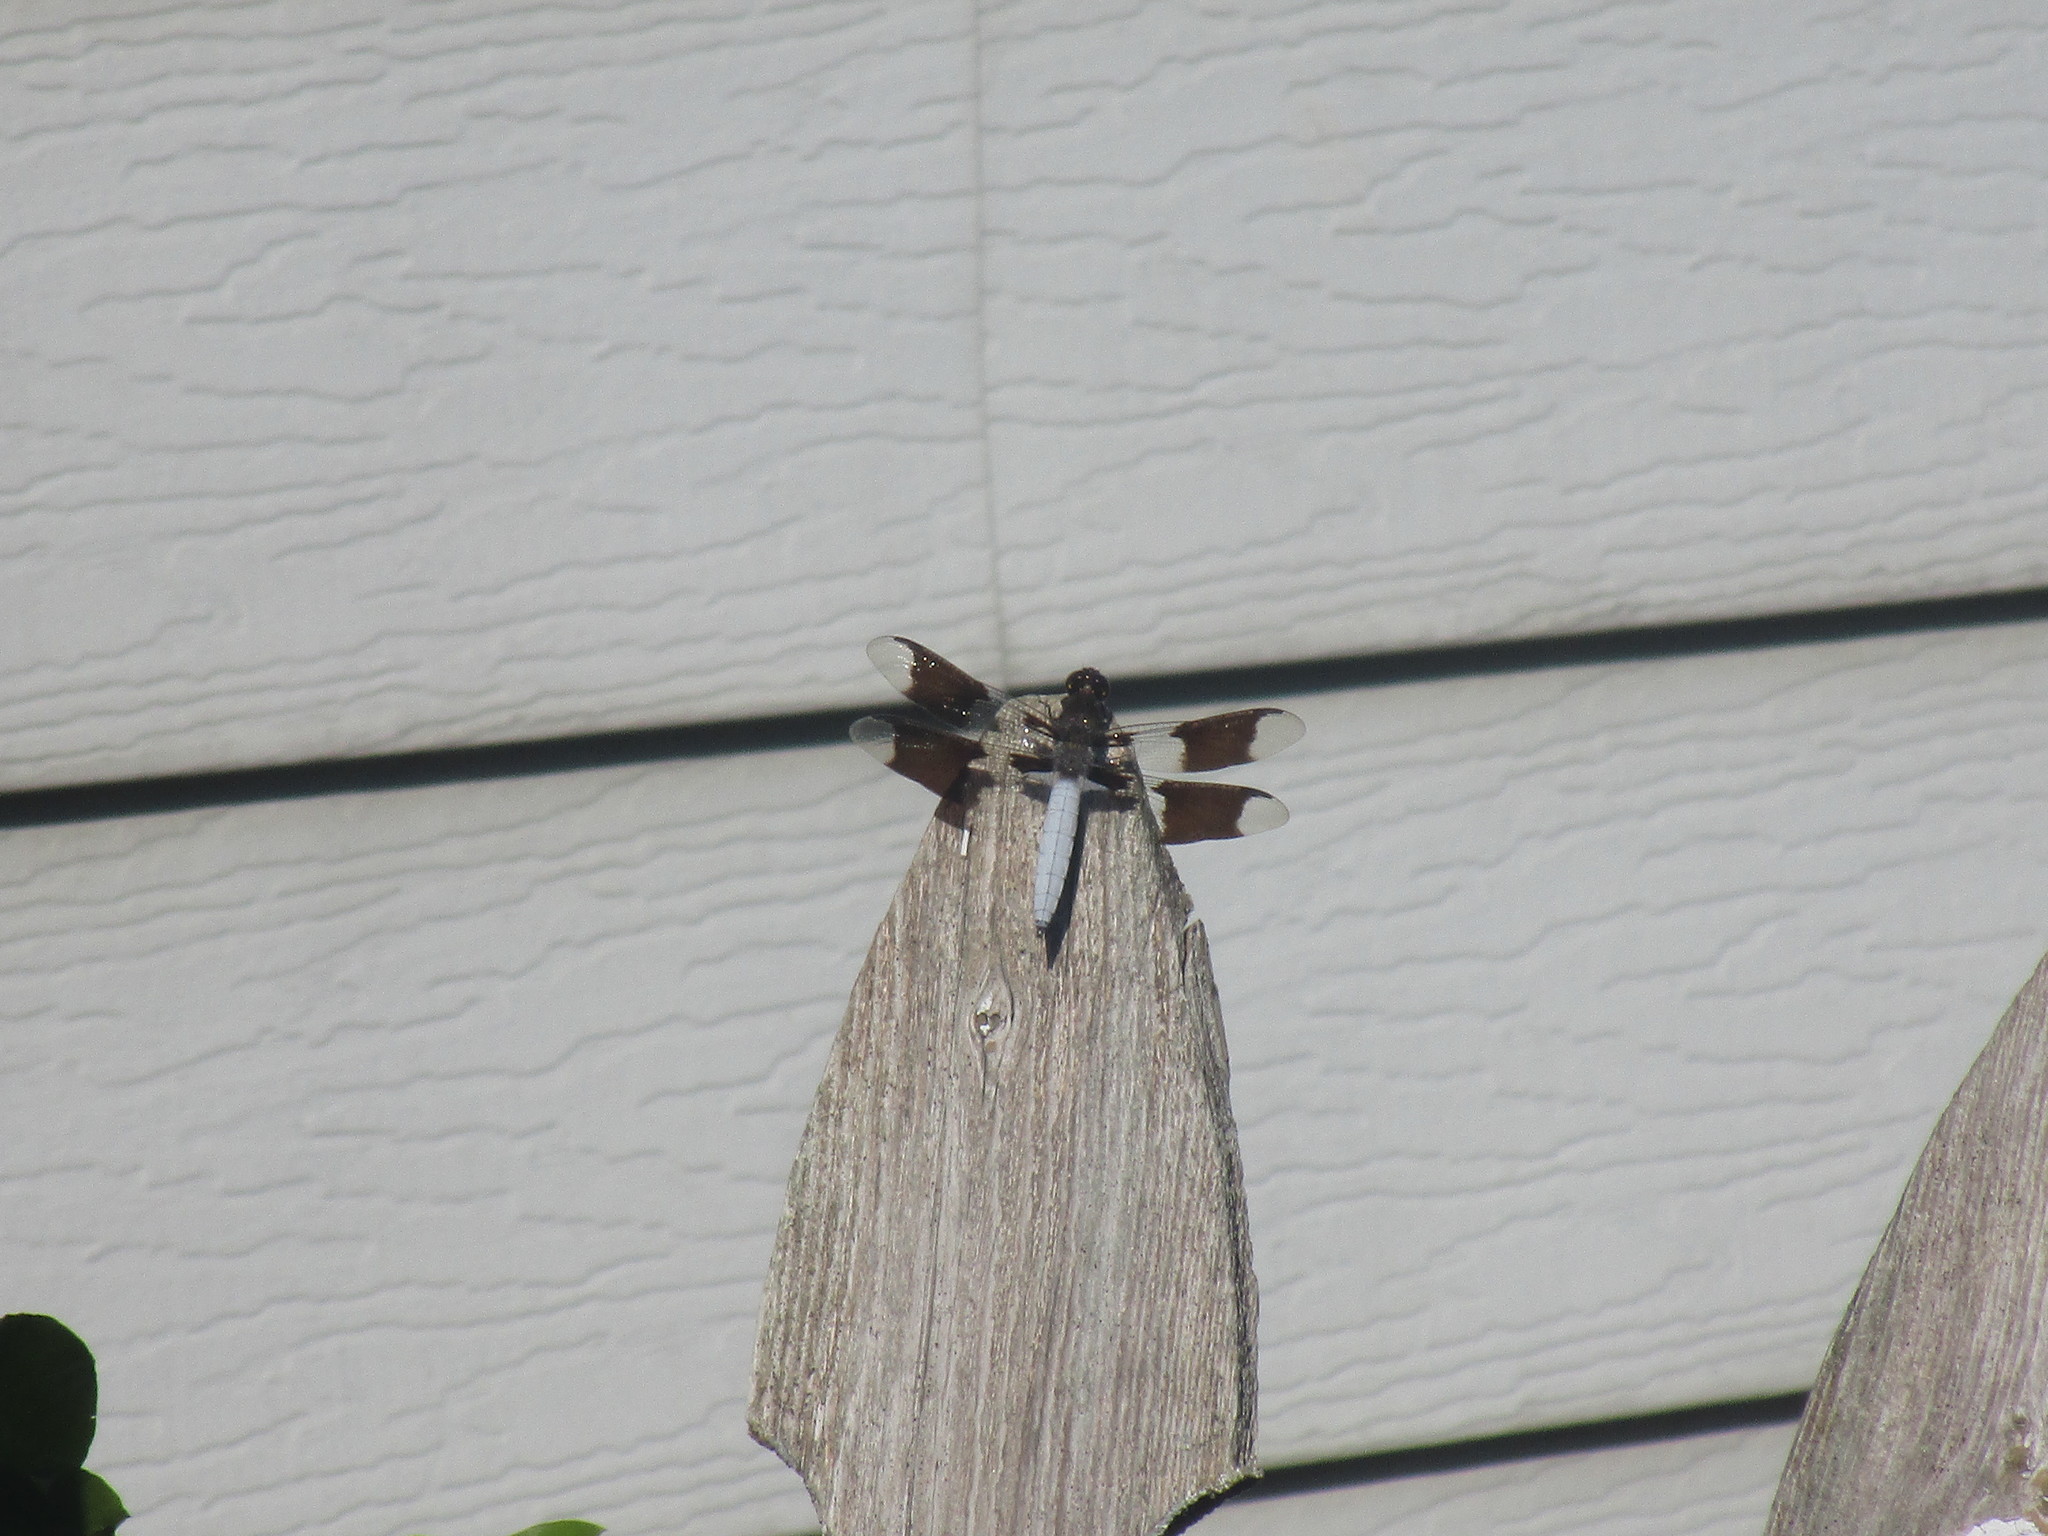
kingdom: Animalia
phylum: Arthropoda
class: Insecta
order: Odonata
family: Libellulidae
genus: Plathemis
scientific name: Plathemis lydia
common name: Common whitetail
